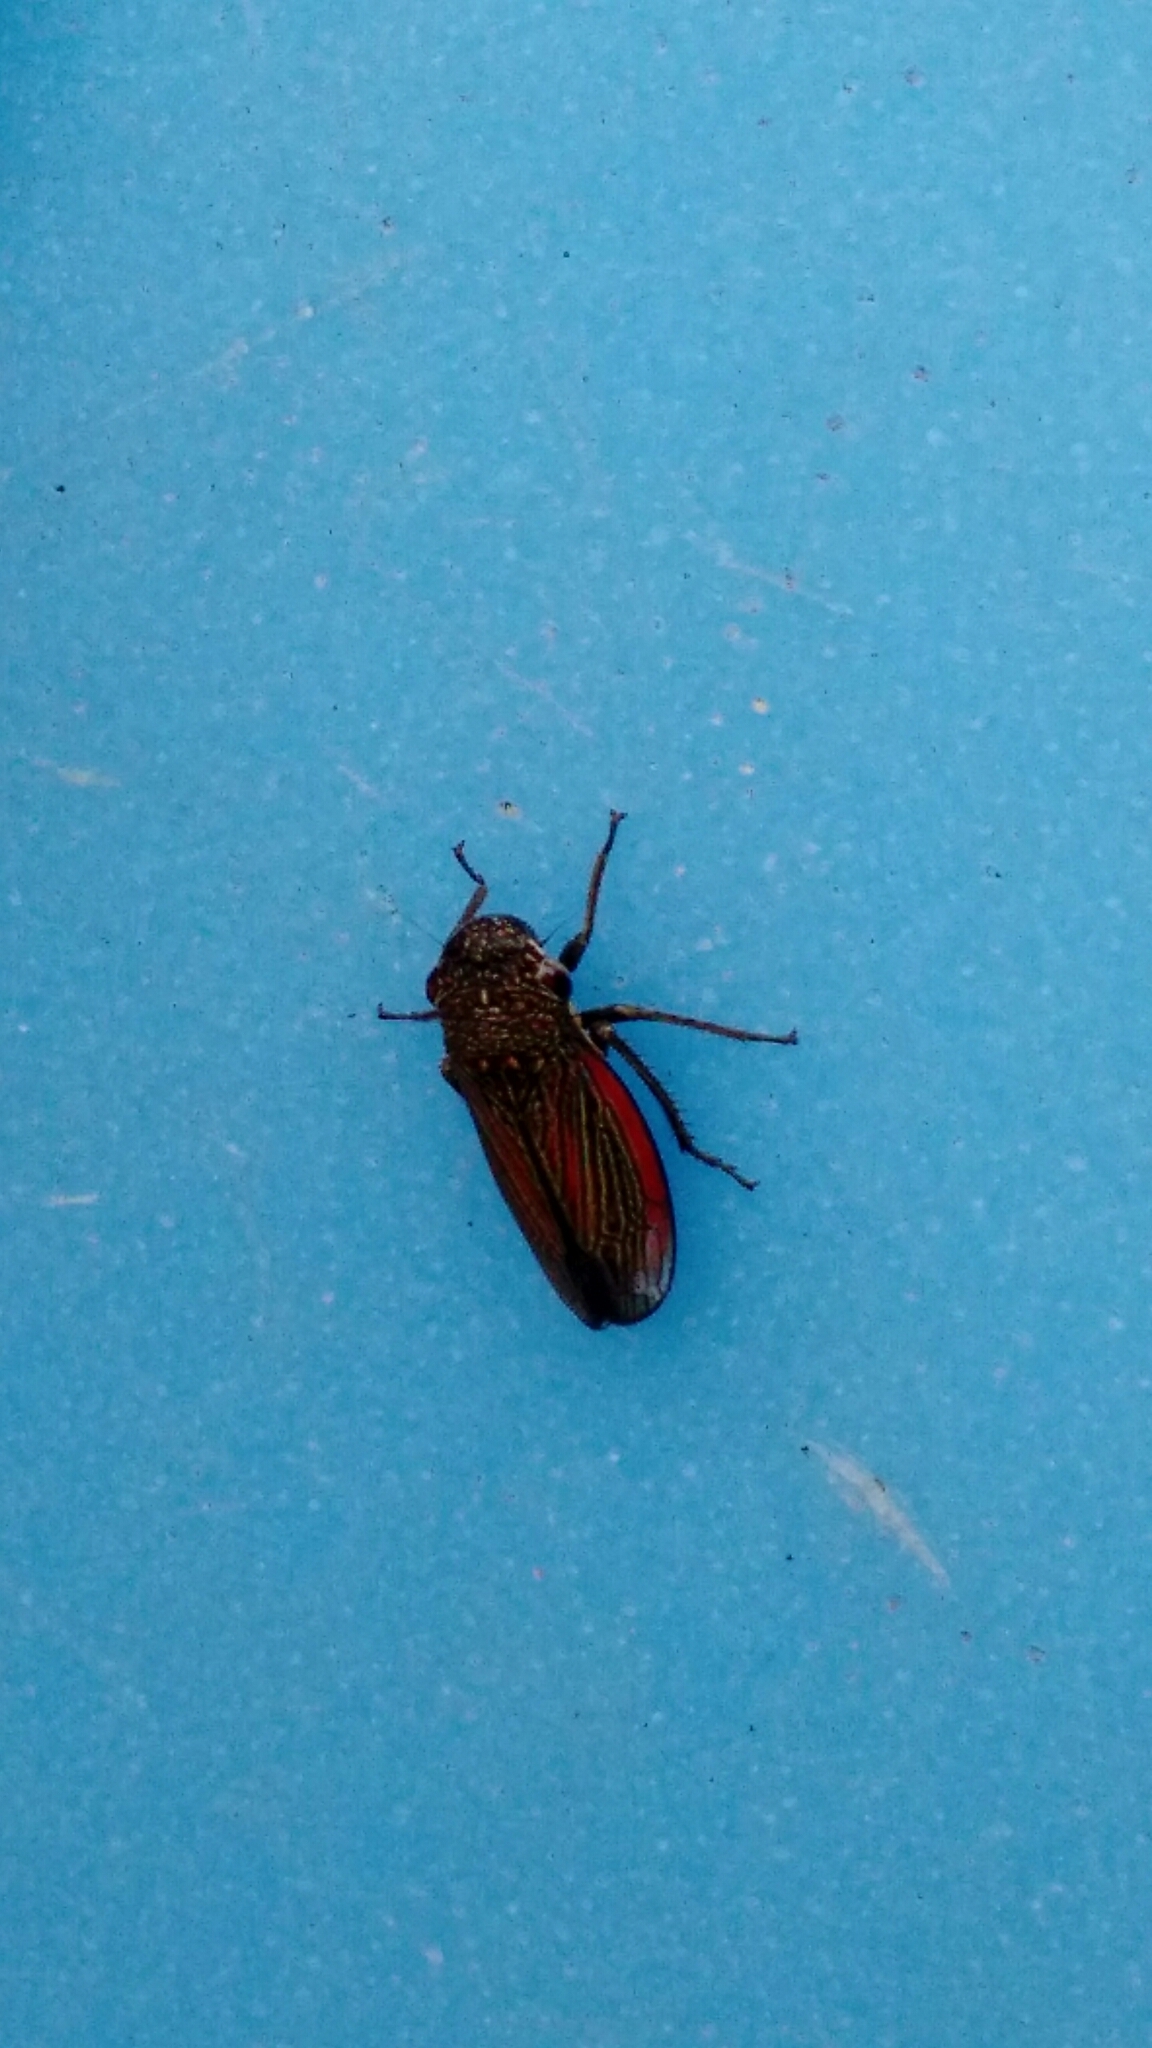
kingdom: Animalia
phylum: Arthropoda
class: Insecta
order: Hemiptera
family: Cicadellidae
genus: Cuerna
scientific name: Cuerna striata
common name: Striped leafhopper
